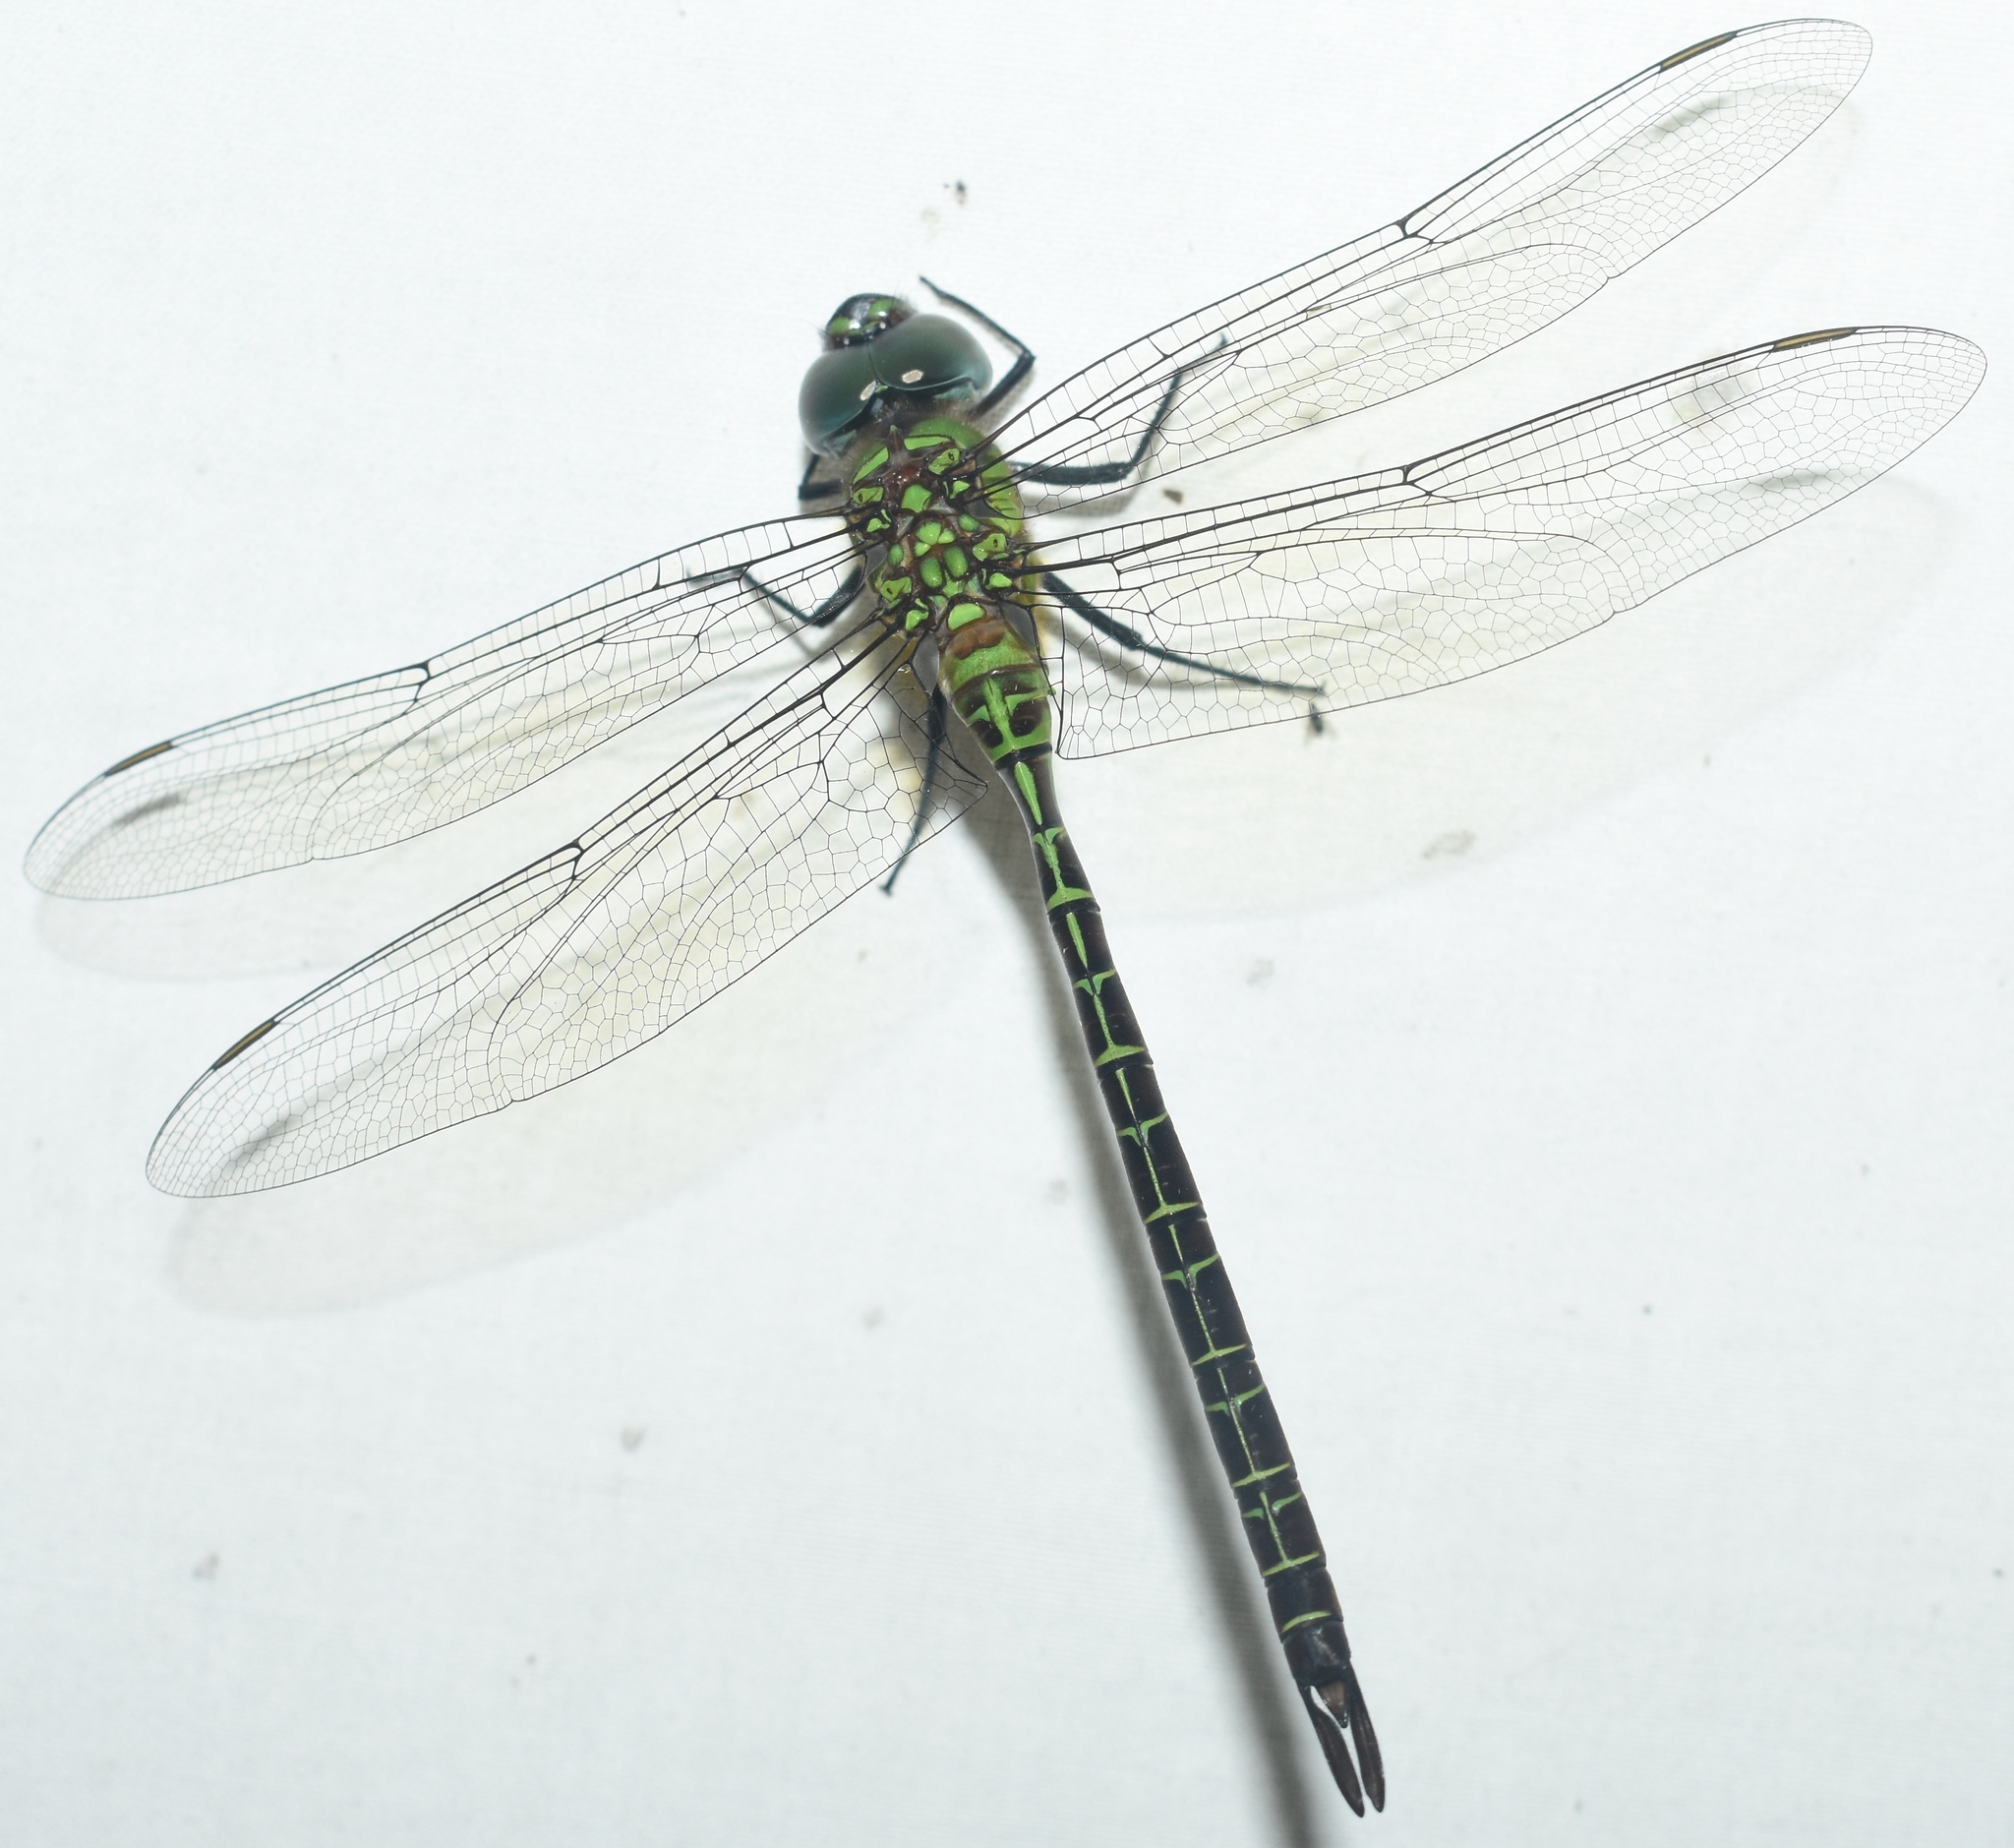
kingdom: Animalia
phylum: Arthropoda
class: Insecta
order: Odonata
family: Aeshnidae
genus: Coryphaeschna
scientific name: Coryphaeschna adnexa
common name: Blue-faced darner
